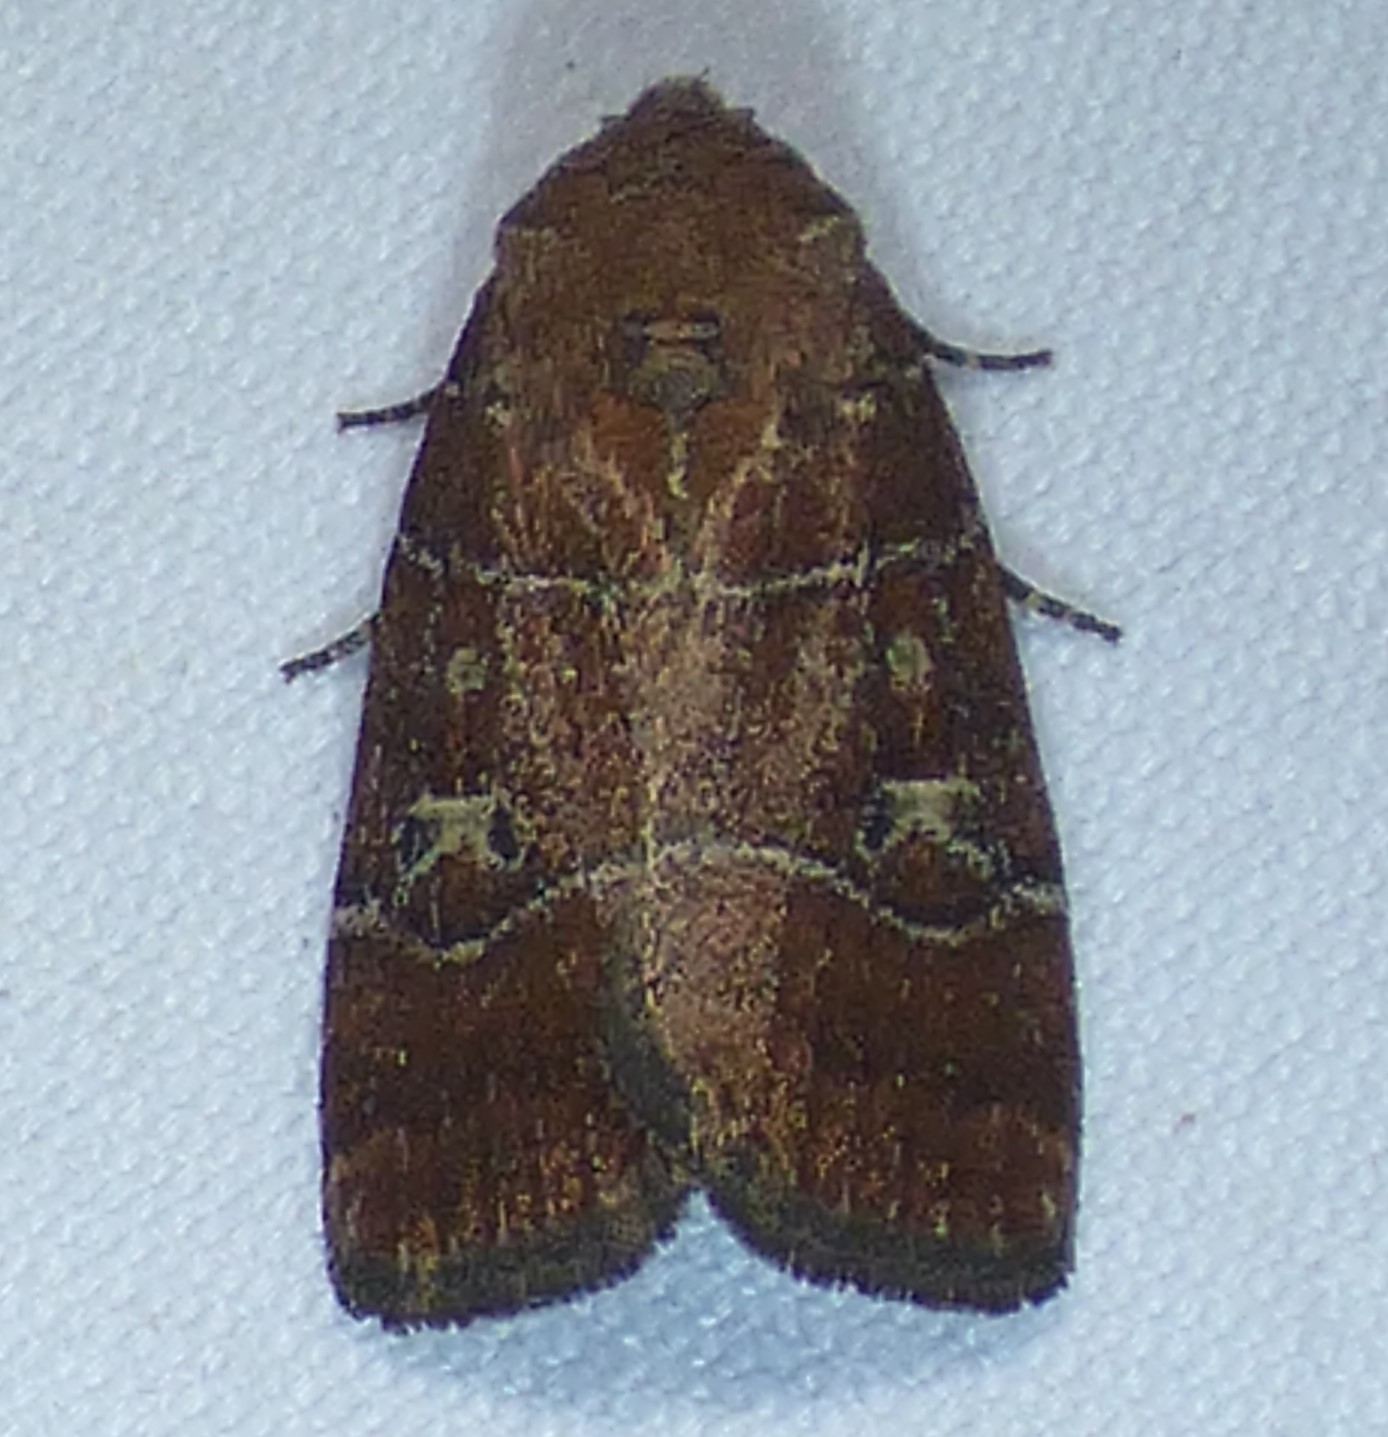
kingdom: Animalia
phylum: Arthropoda
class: Insecta
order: Lepidoptera
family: Noctuidae
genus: Elaphria
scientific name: Elaphria grata
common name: Grateful midget moth
